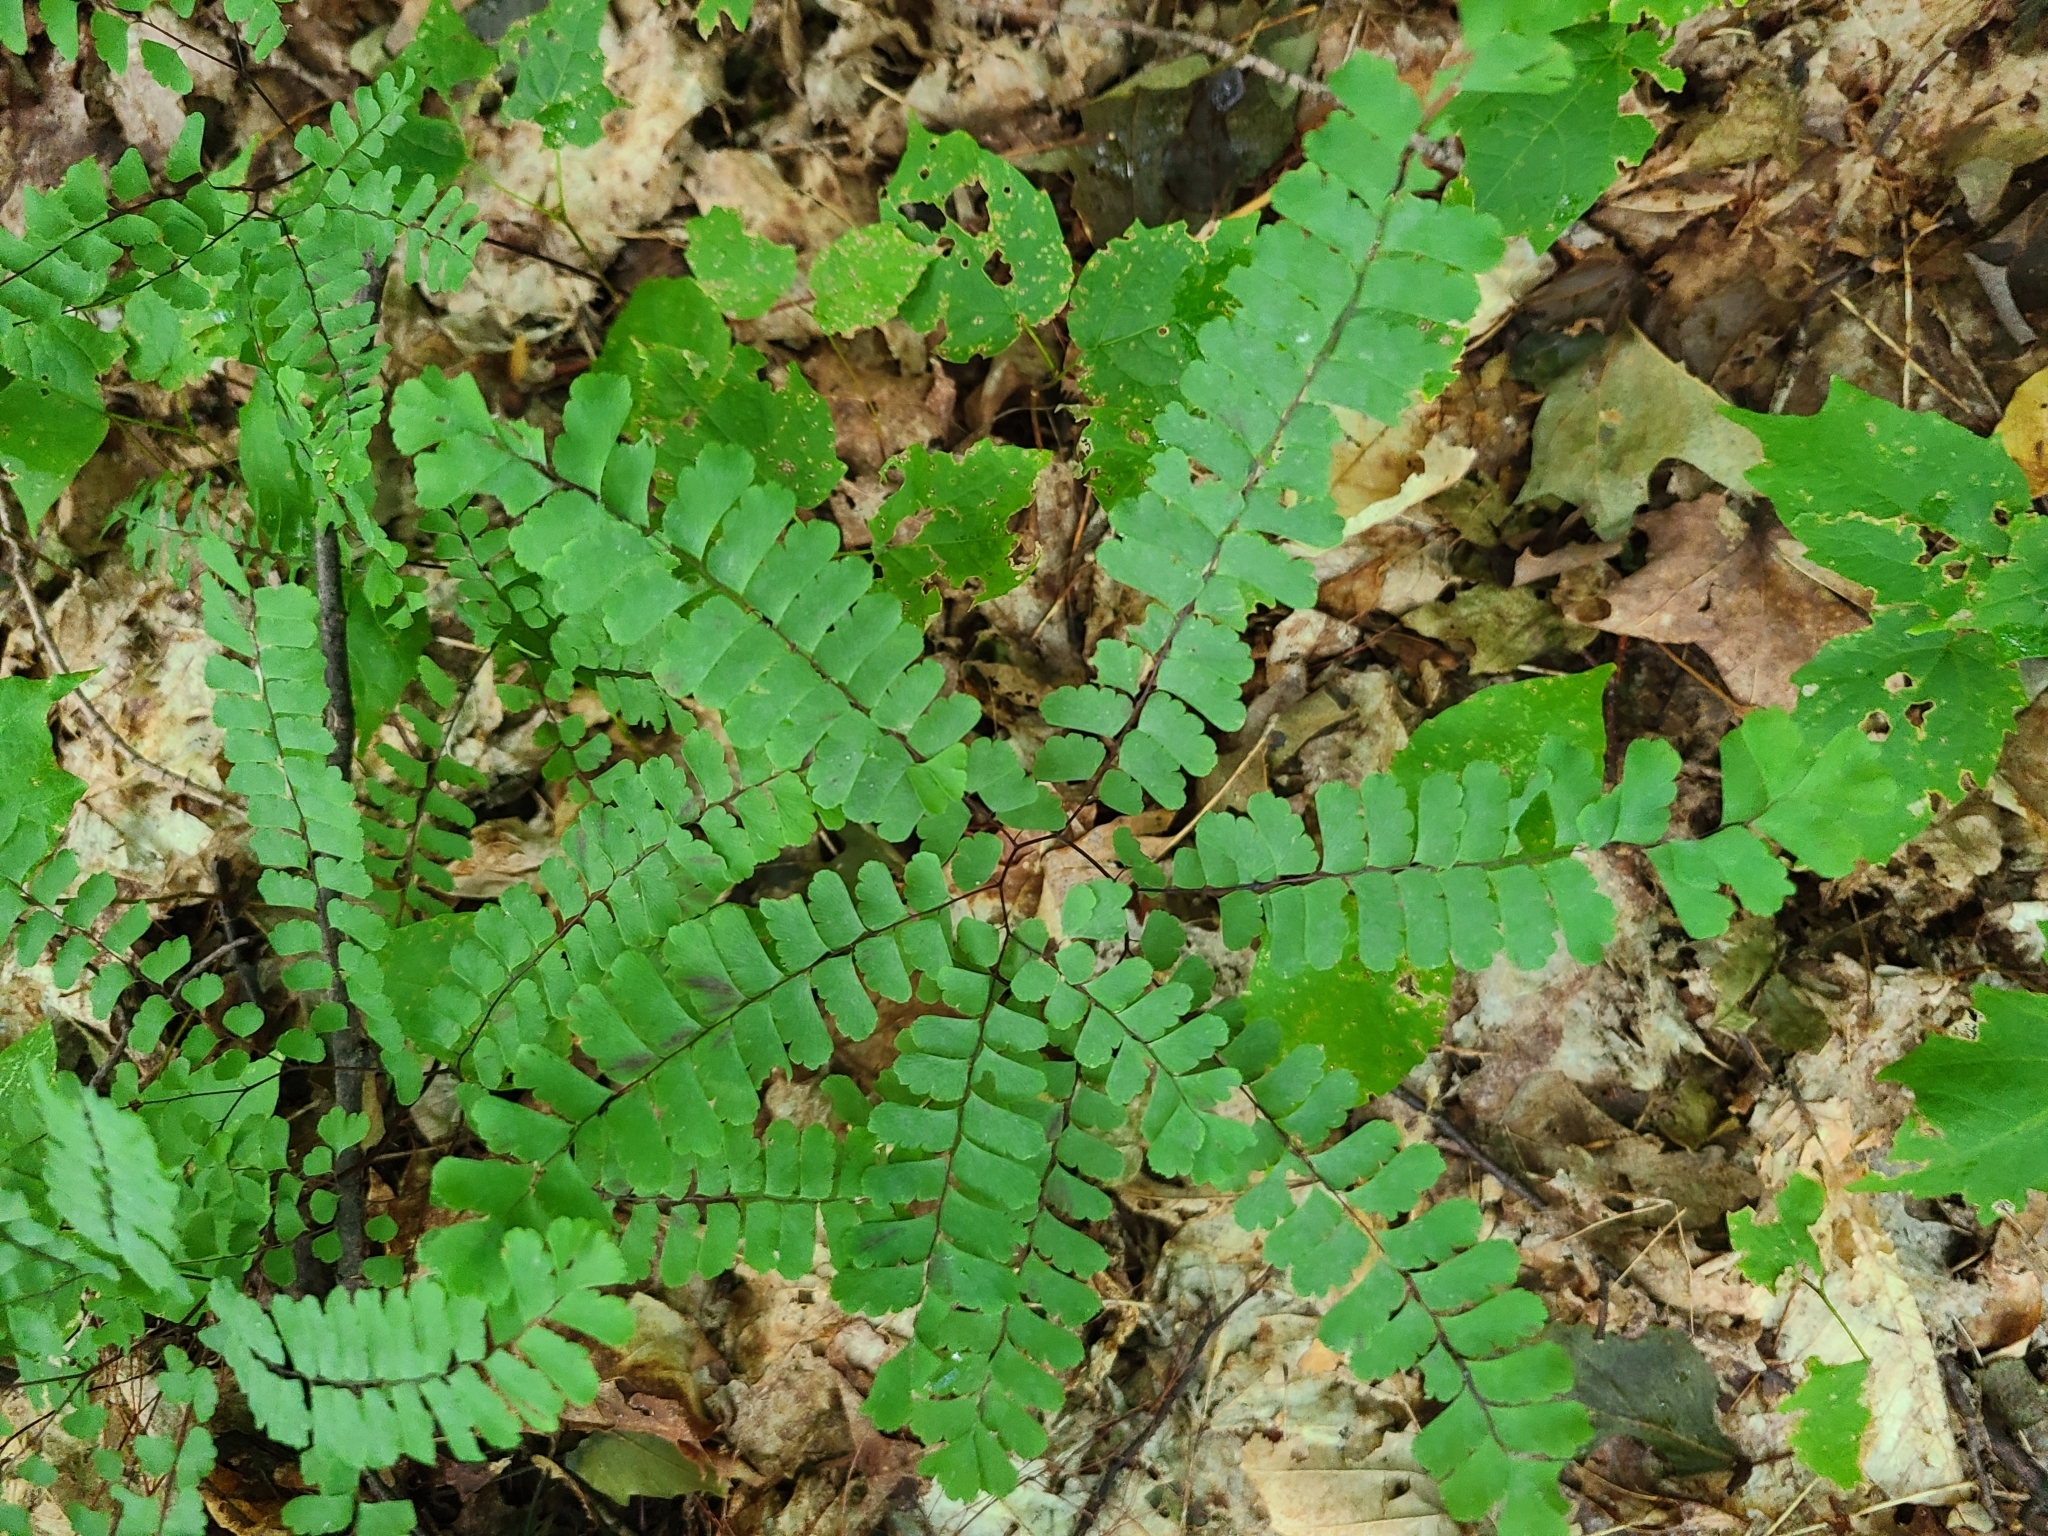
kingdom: Plantae
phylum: Tracheophyta
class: Polypodiopsida
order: Polypodiales
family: Pteridaceae
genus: Adiantum
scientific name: Adiantum pedatum
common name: Five-finger fern
